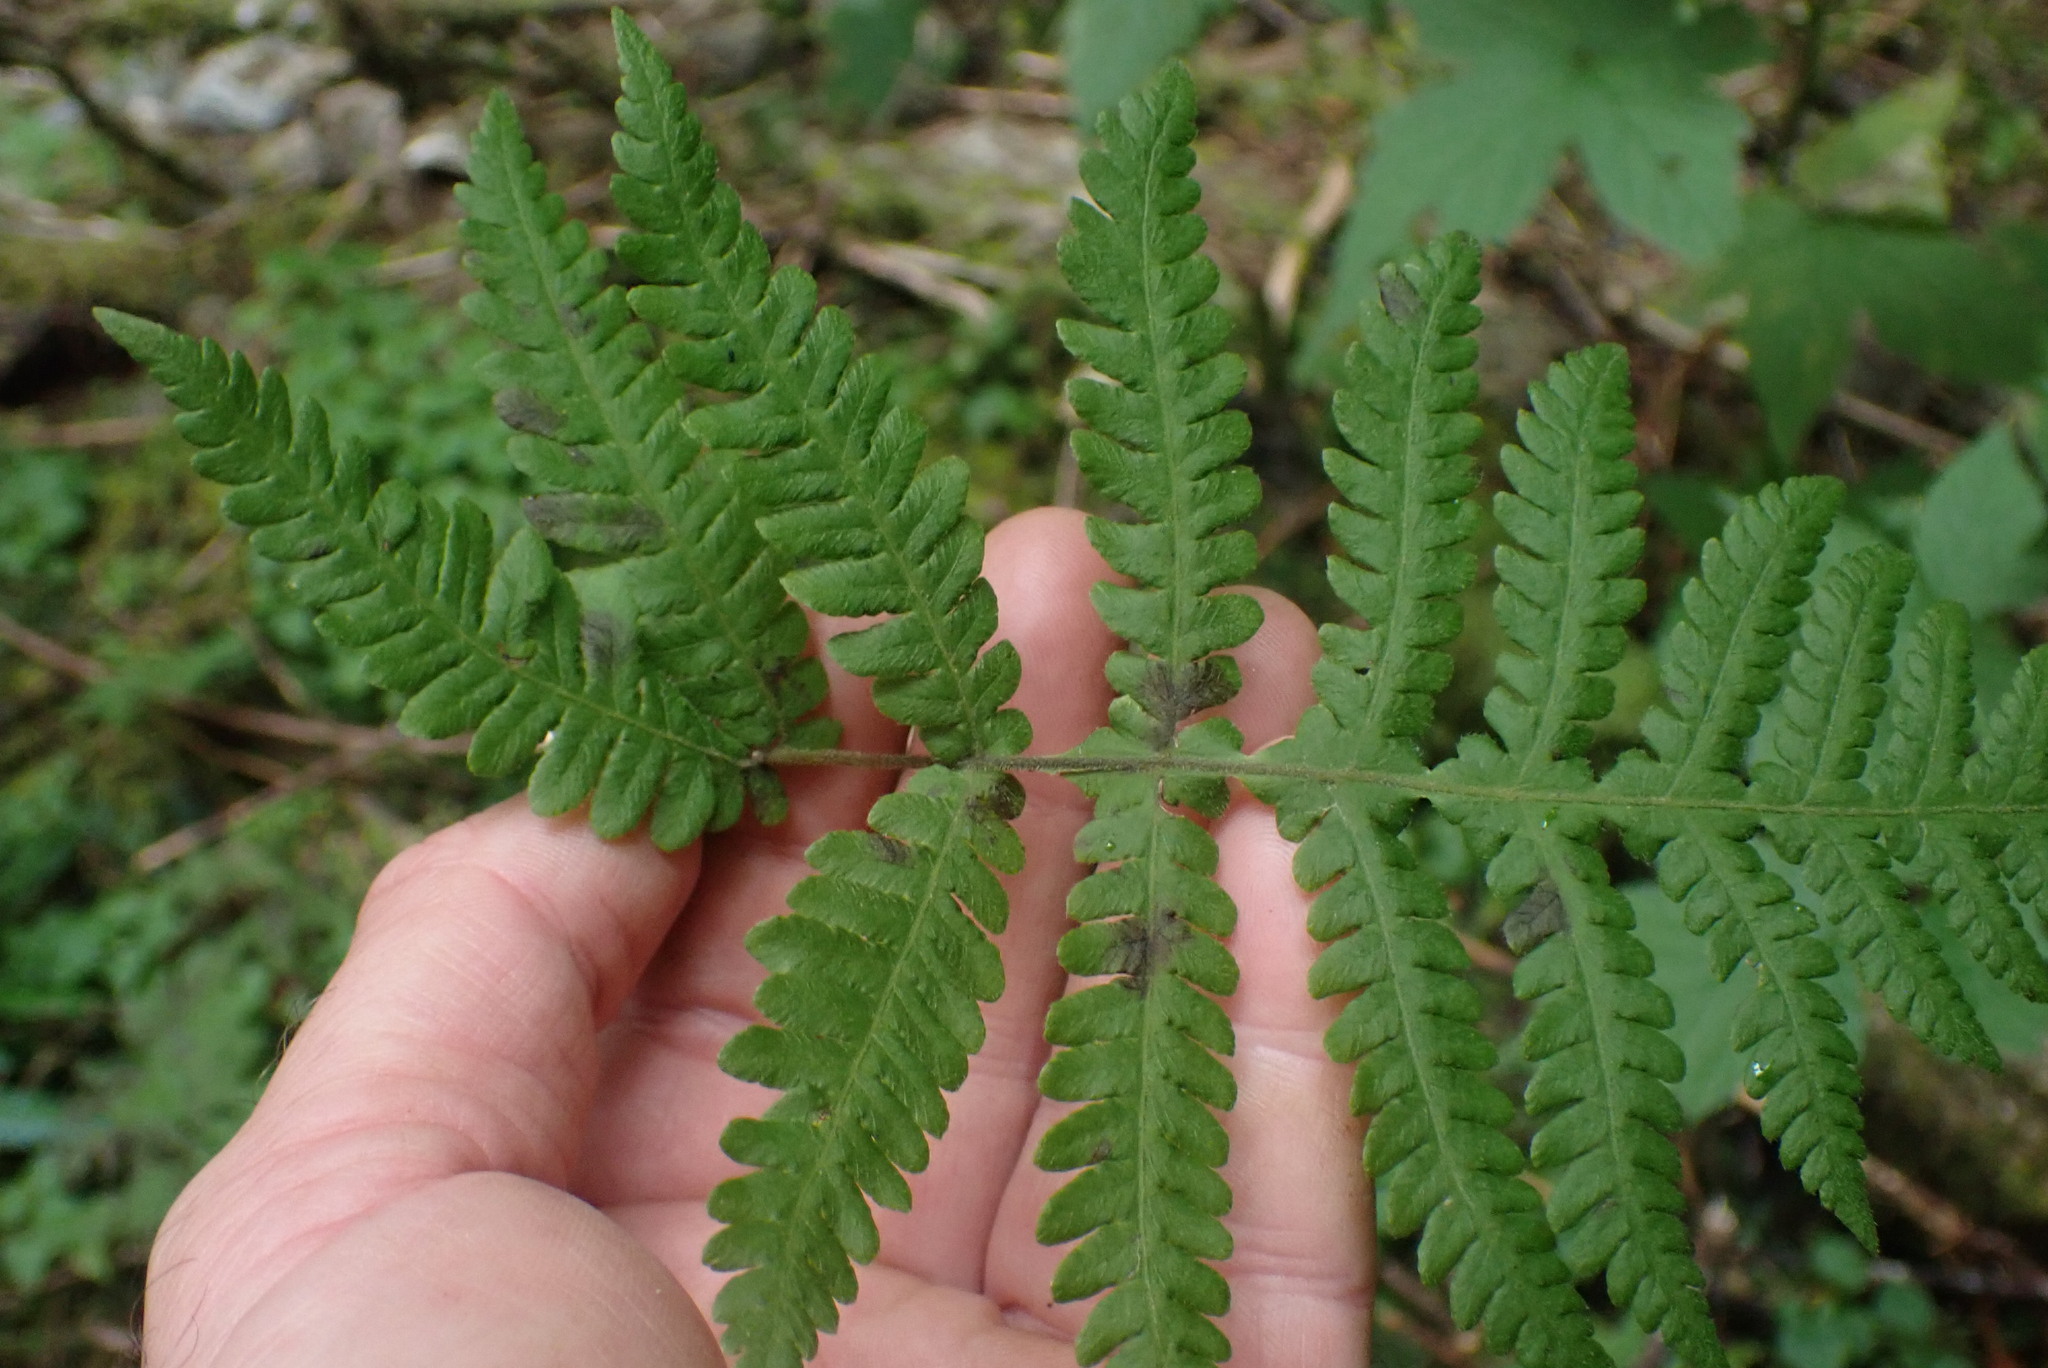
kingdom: Plantae
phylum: Tracheophyta
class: Polypodiopsida
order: Polypodiales
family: Thelypteridaceae
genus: Phegopteris
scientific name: Phegopteris connectilis
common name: Beech fern
